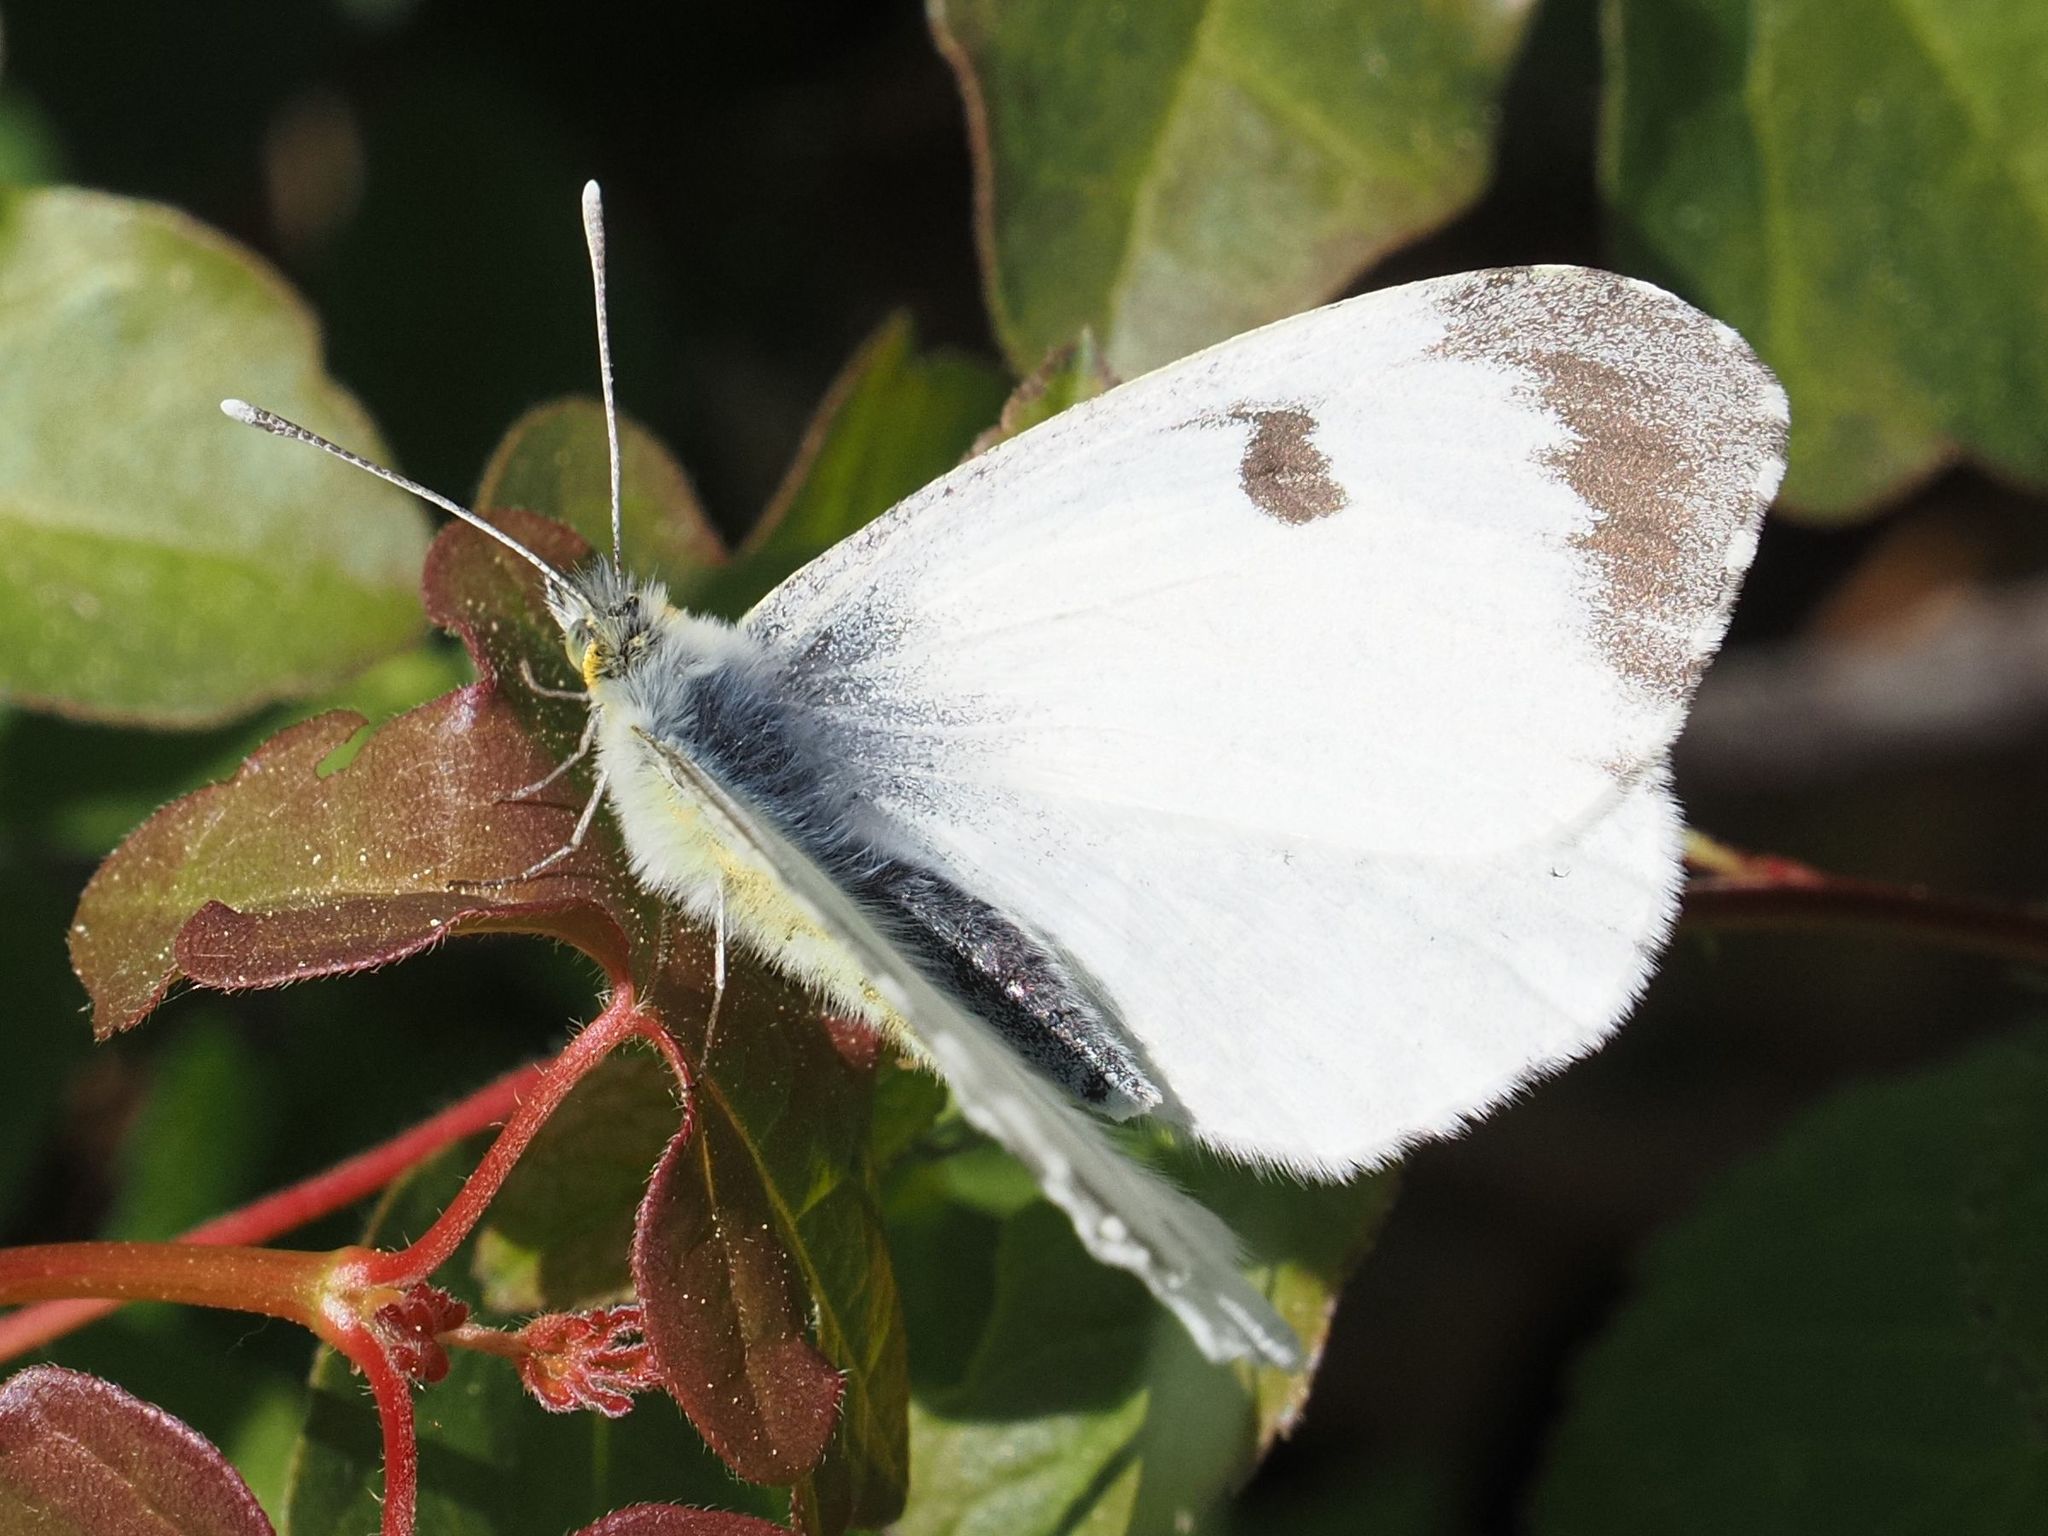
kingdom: Animalia
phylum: Arthropoda
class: Insecta
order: Lepidoptera
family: Pieridae
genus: Anthocharis
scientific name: Anthocharis cardamines
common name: Orange-tip
